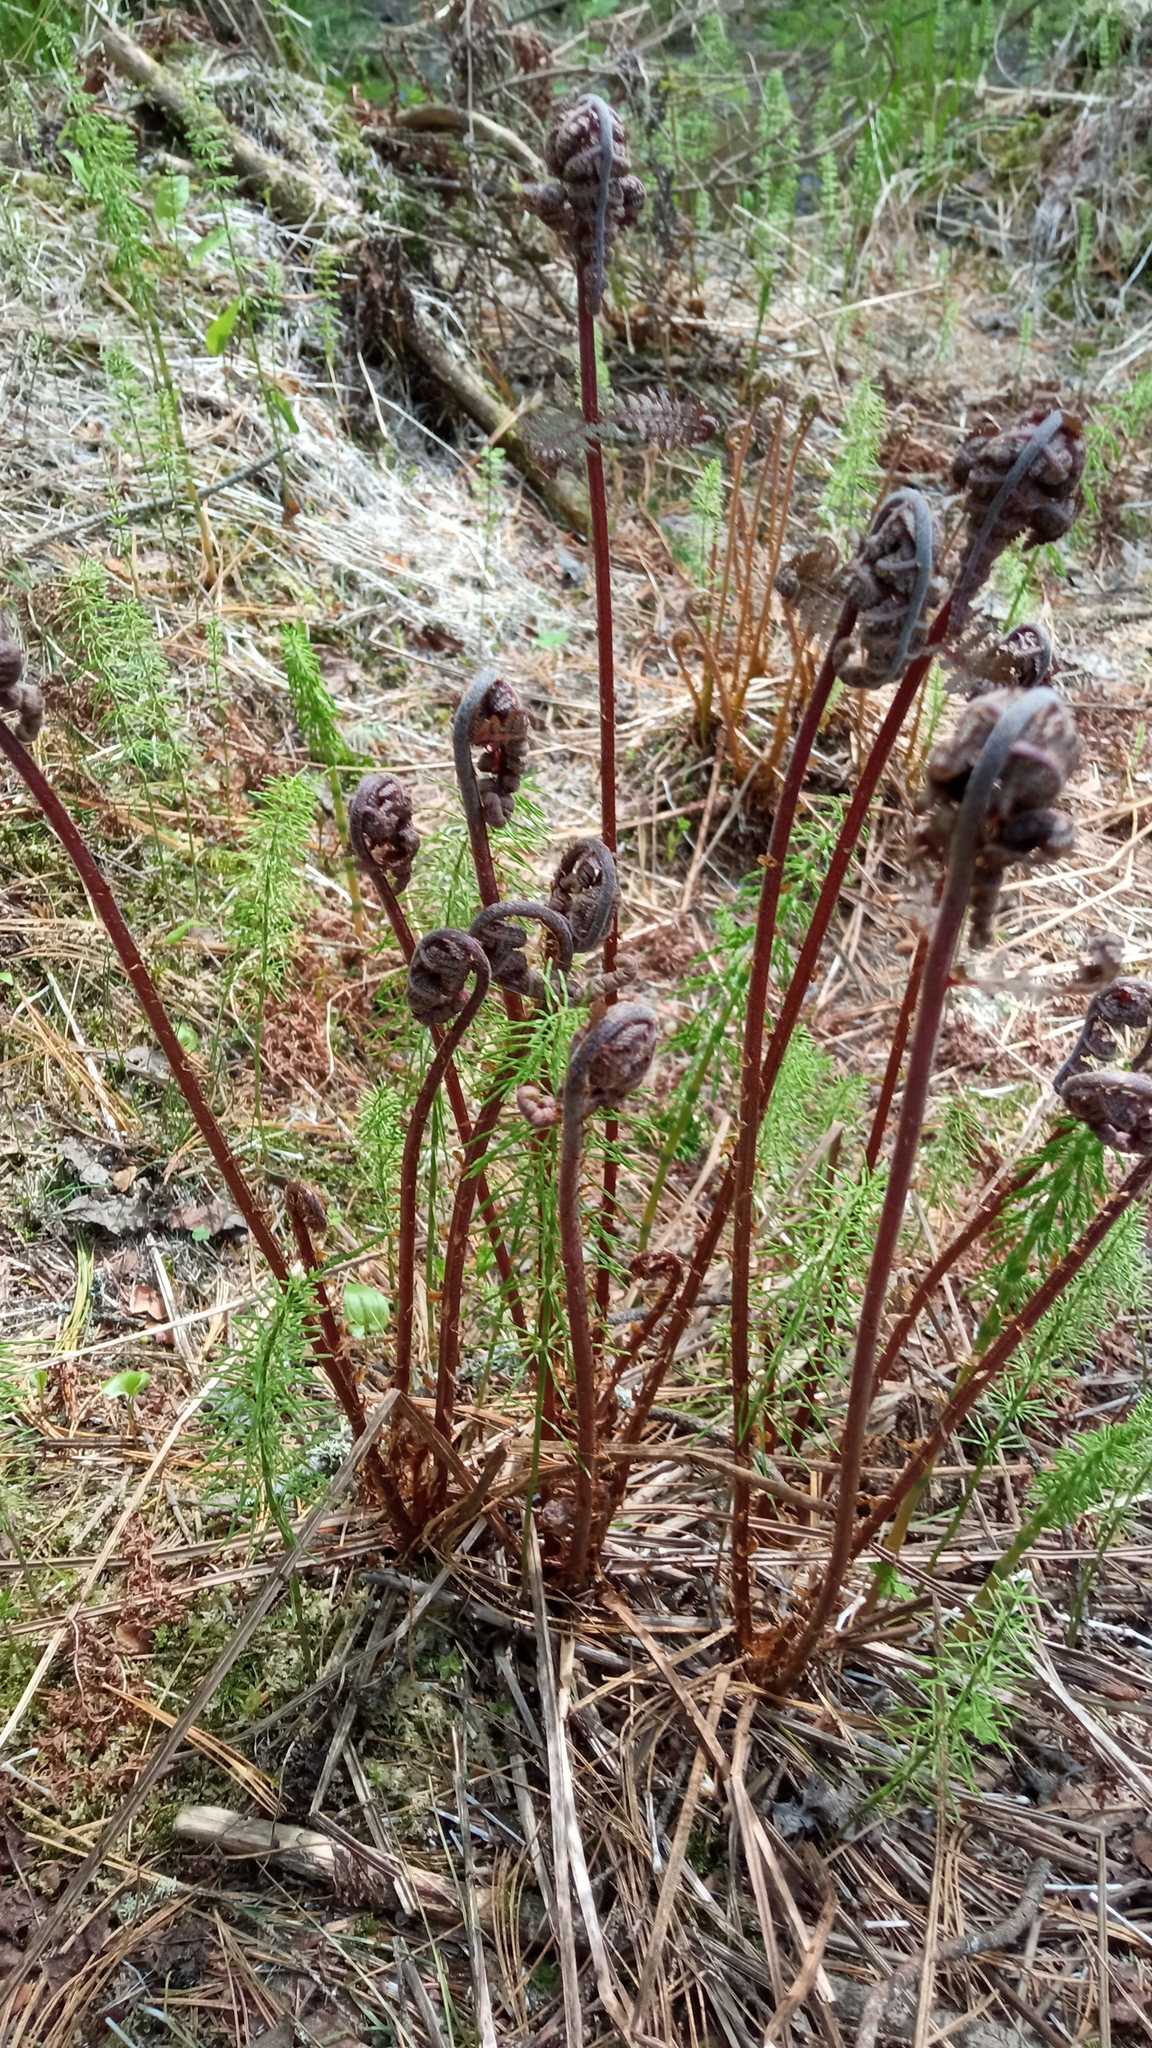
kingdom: Plantae
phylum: Tracheophyta
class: Polypodiopsida
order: Polypodiales
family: Athyriaceae
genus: Athyrium
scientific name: Athyrium filix-femina
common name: Lady fern
